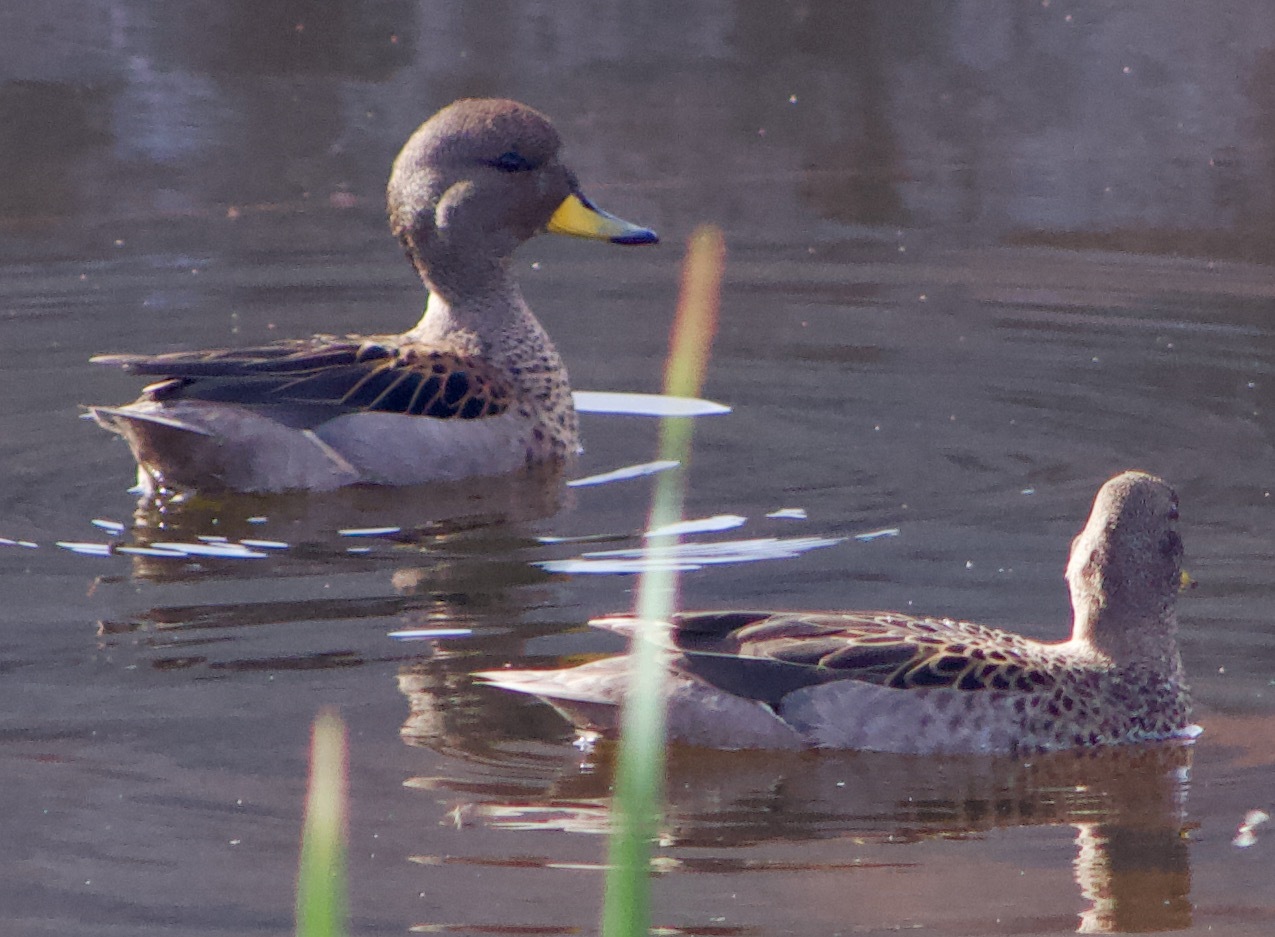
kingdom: Animalia
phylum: Chordata
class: Aves
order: Anseriformes
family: Anatidae
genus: Anas
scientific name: Anas flavirostris
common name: Yellow-billed teal
